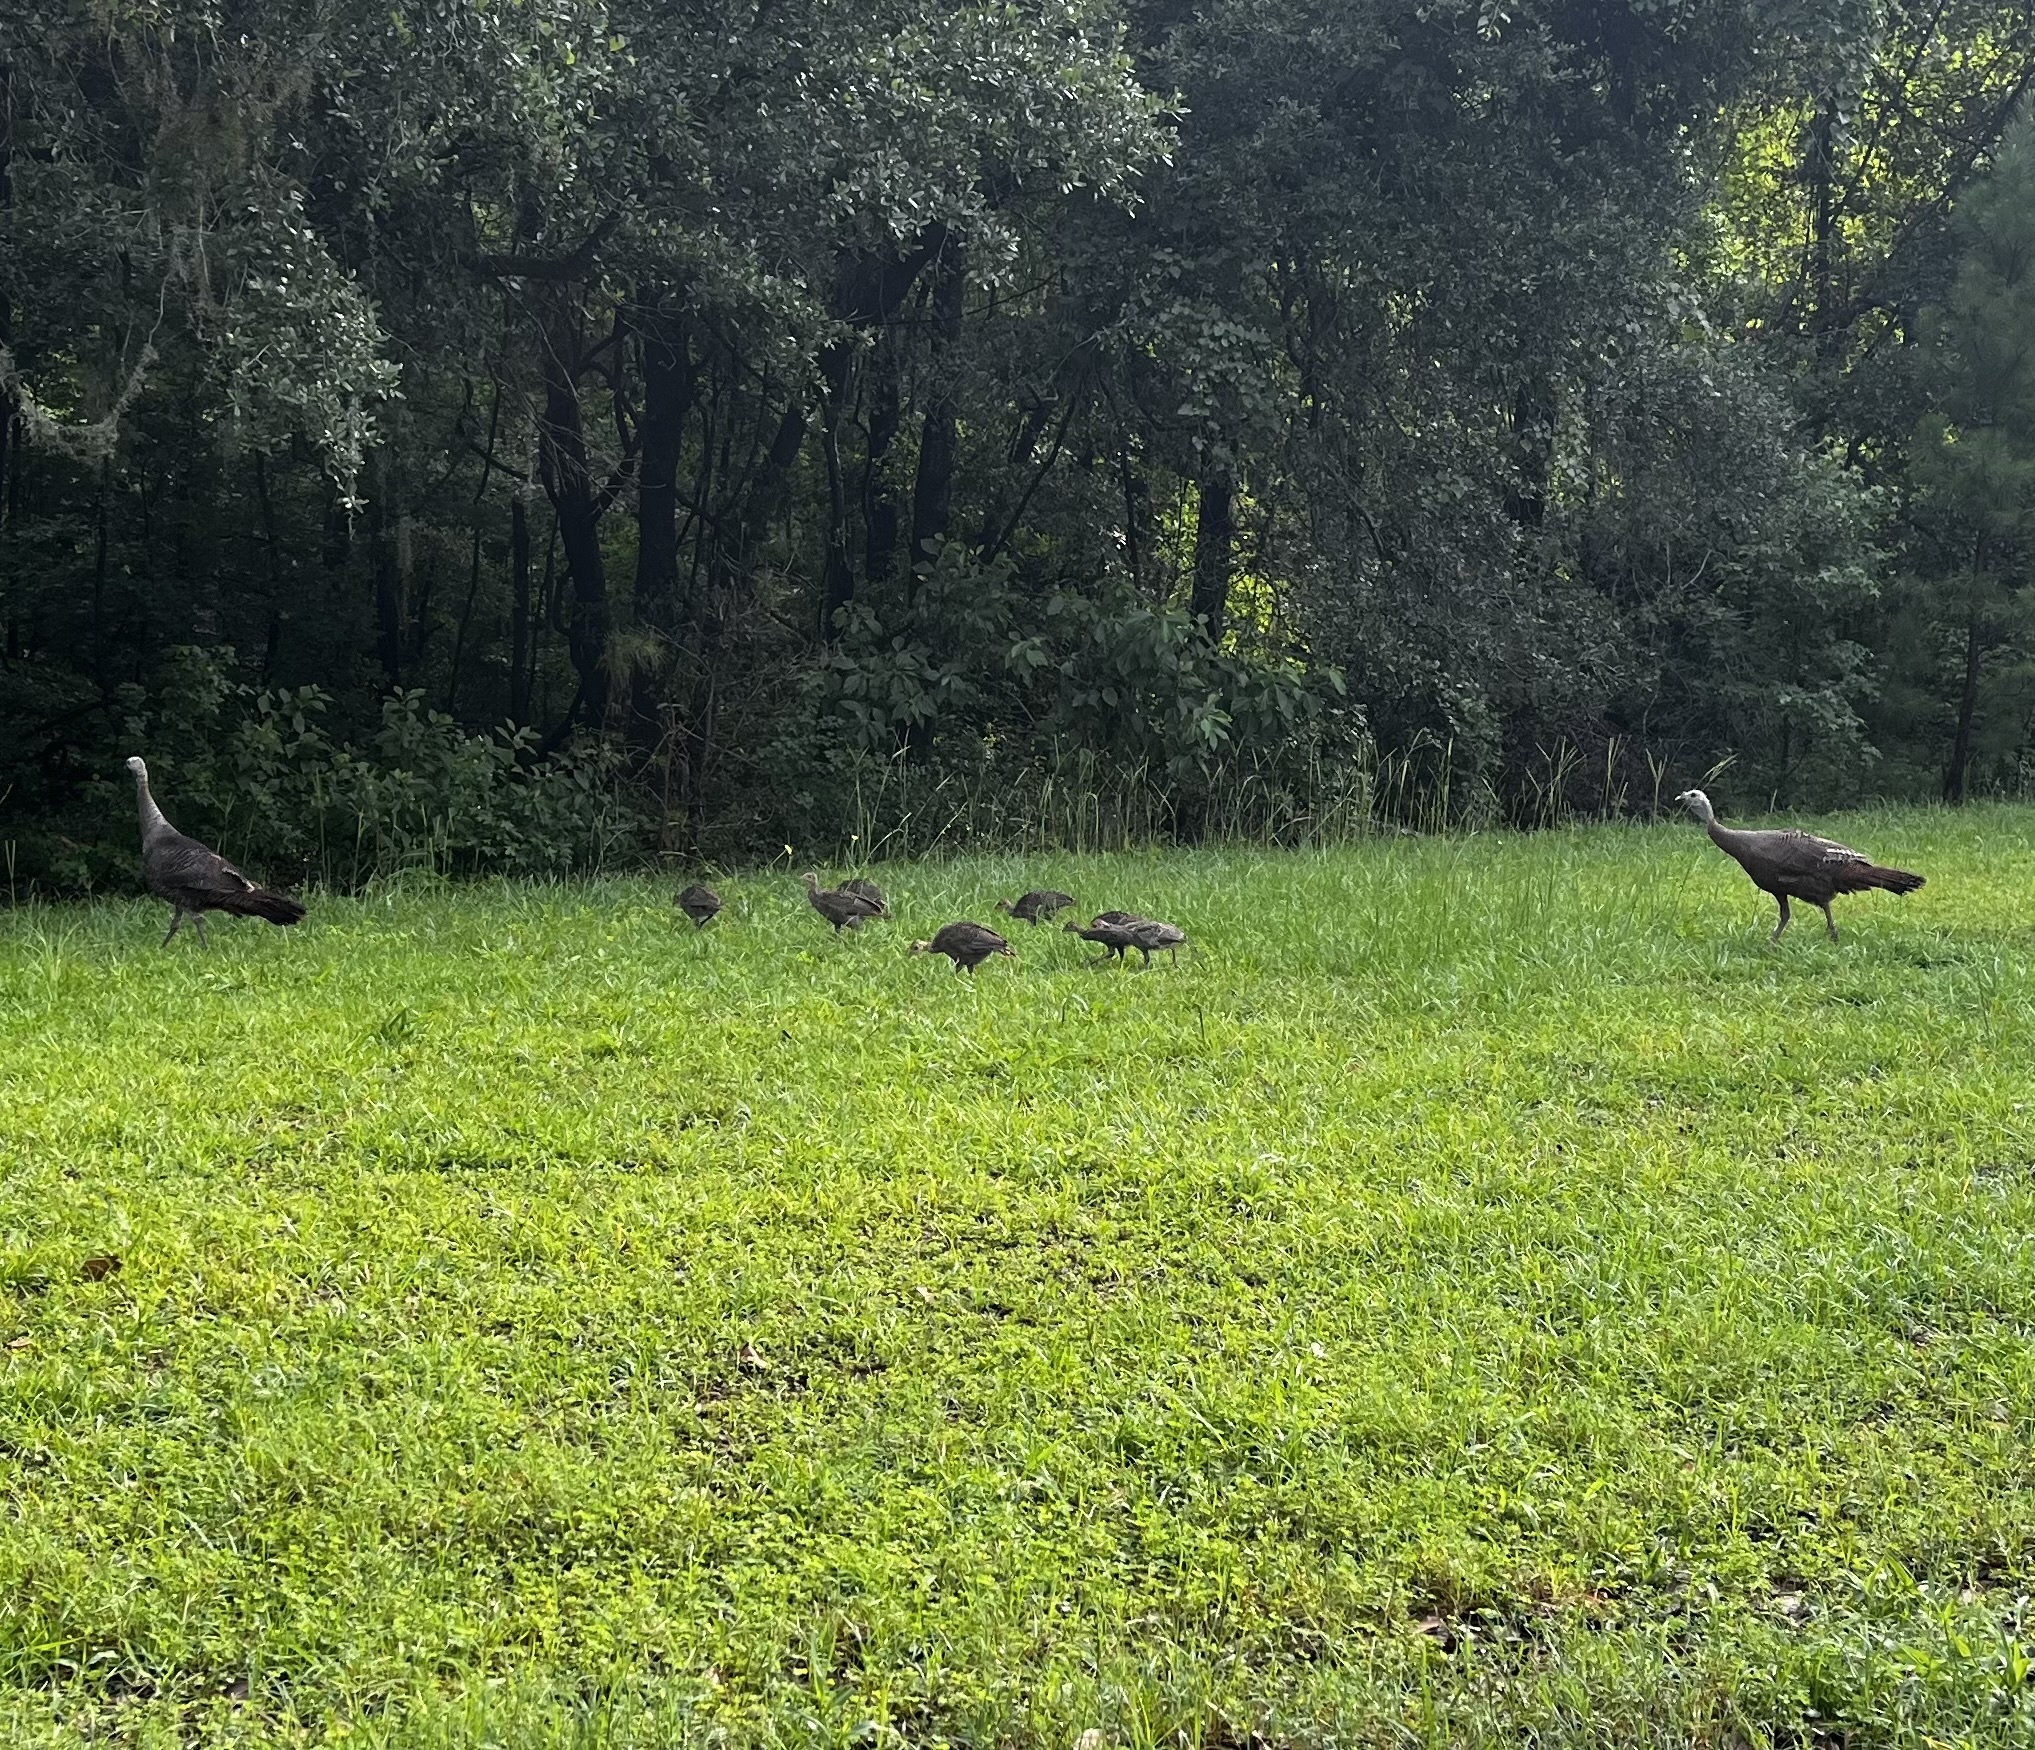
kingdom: Animalia
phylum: Chordata
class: Aves
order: Galliformes
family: Phasianidae
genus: Meleagris
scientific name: Meleagris gallopavo
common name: Wild turkey
